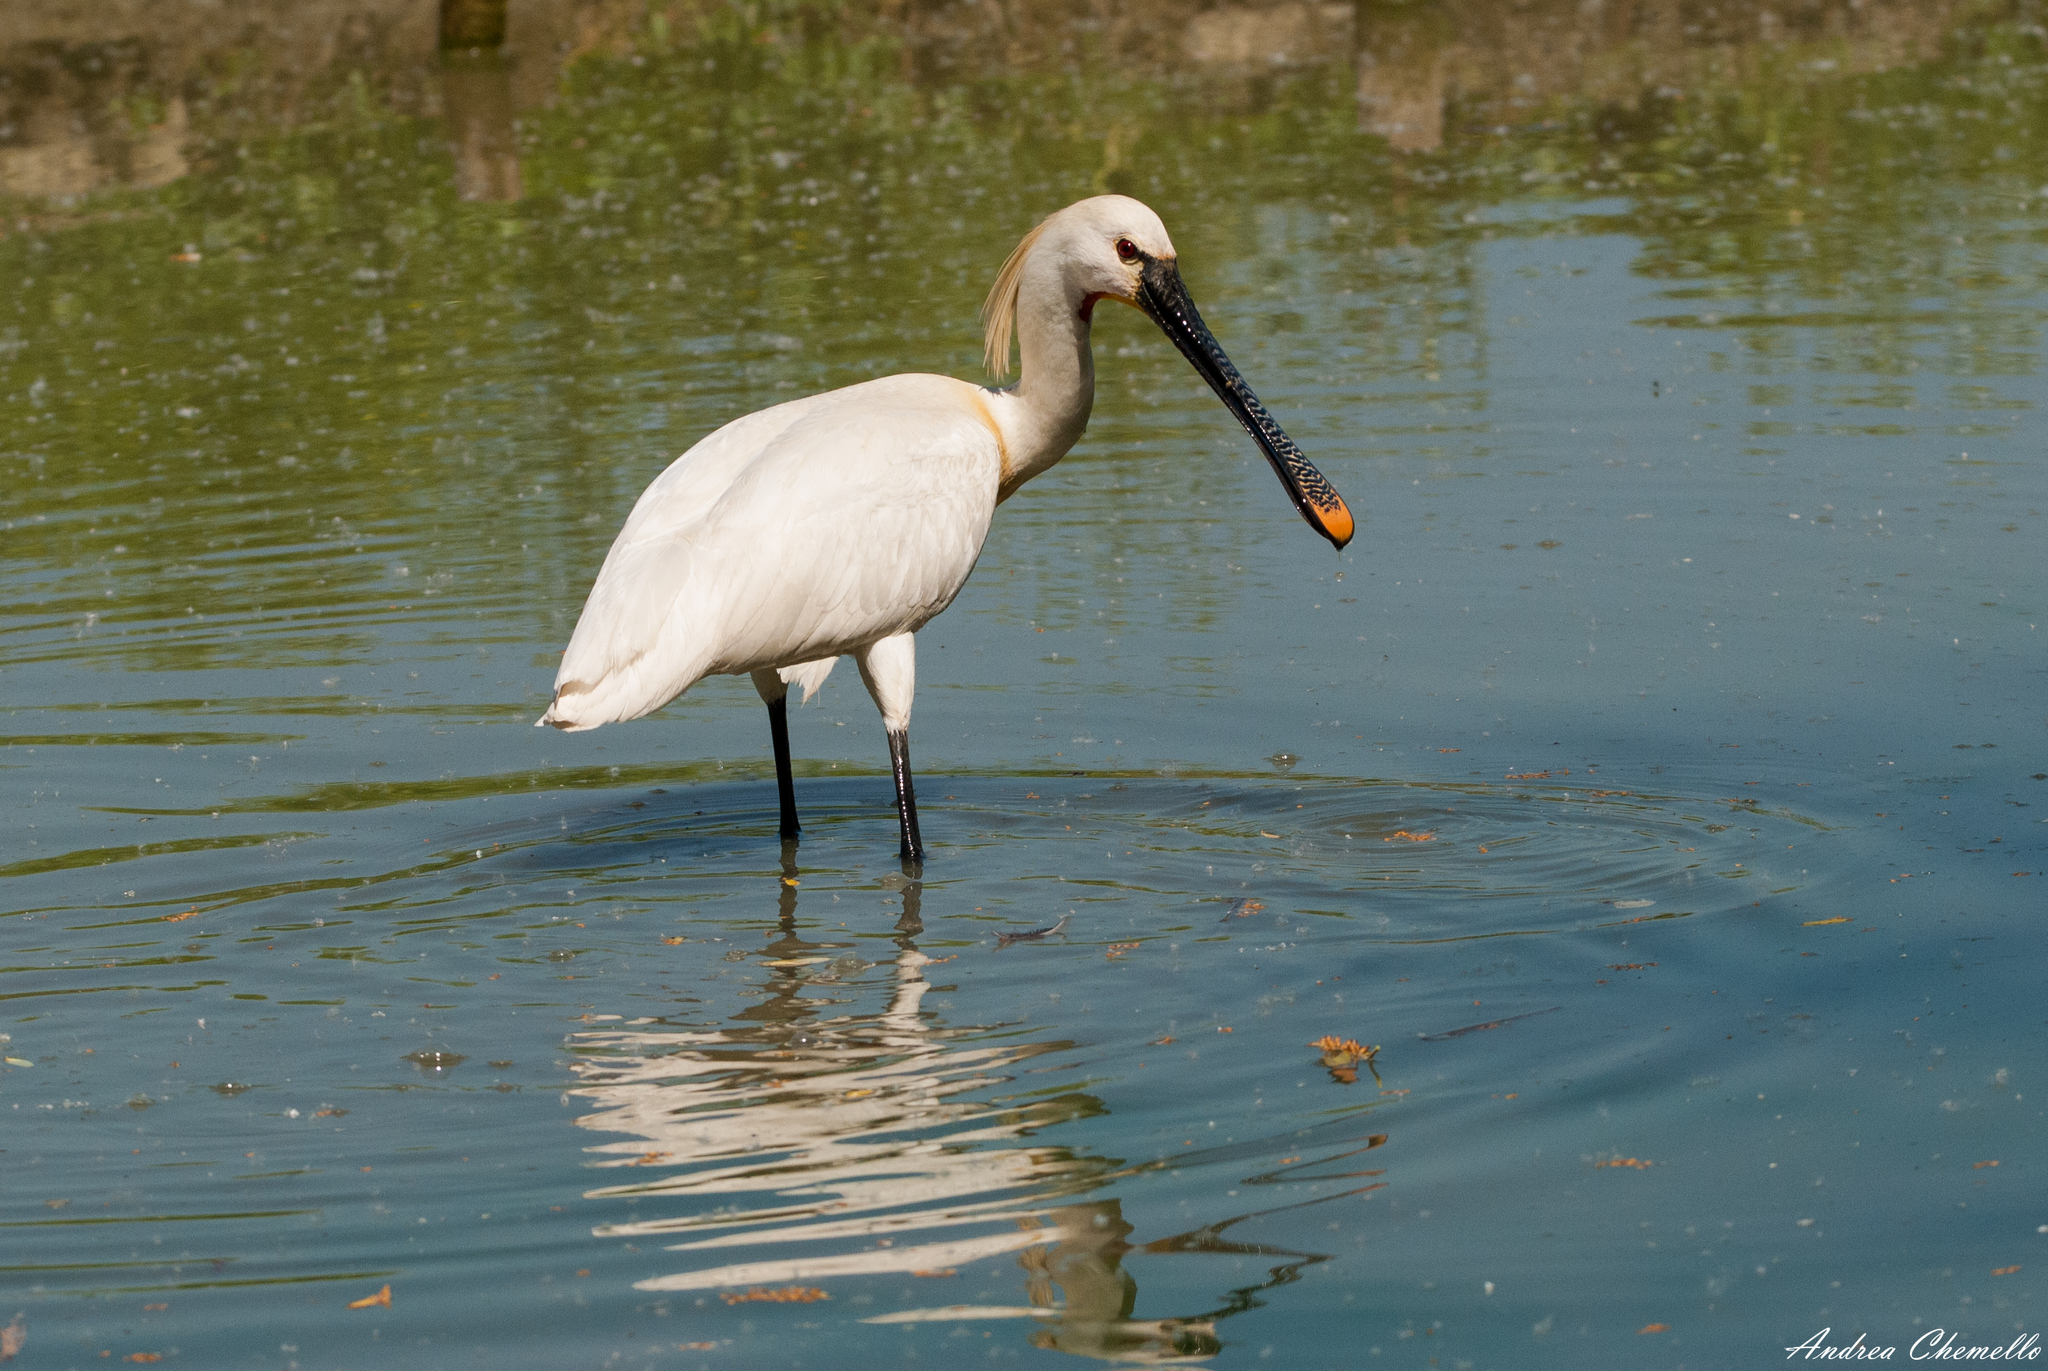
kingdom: Animalia
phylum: Chordata
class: Aves
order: Pelecaniformes
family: Threskiornithidae
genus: Platalea
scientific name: Platalea leucorodia
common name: Eurasian spoonbill
